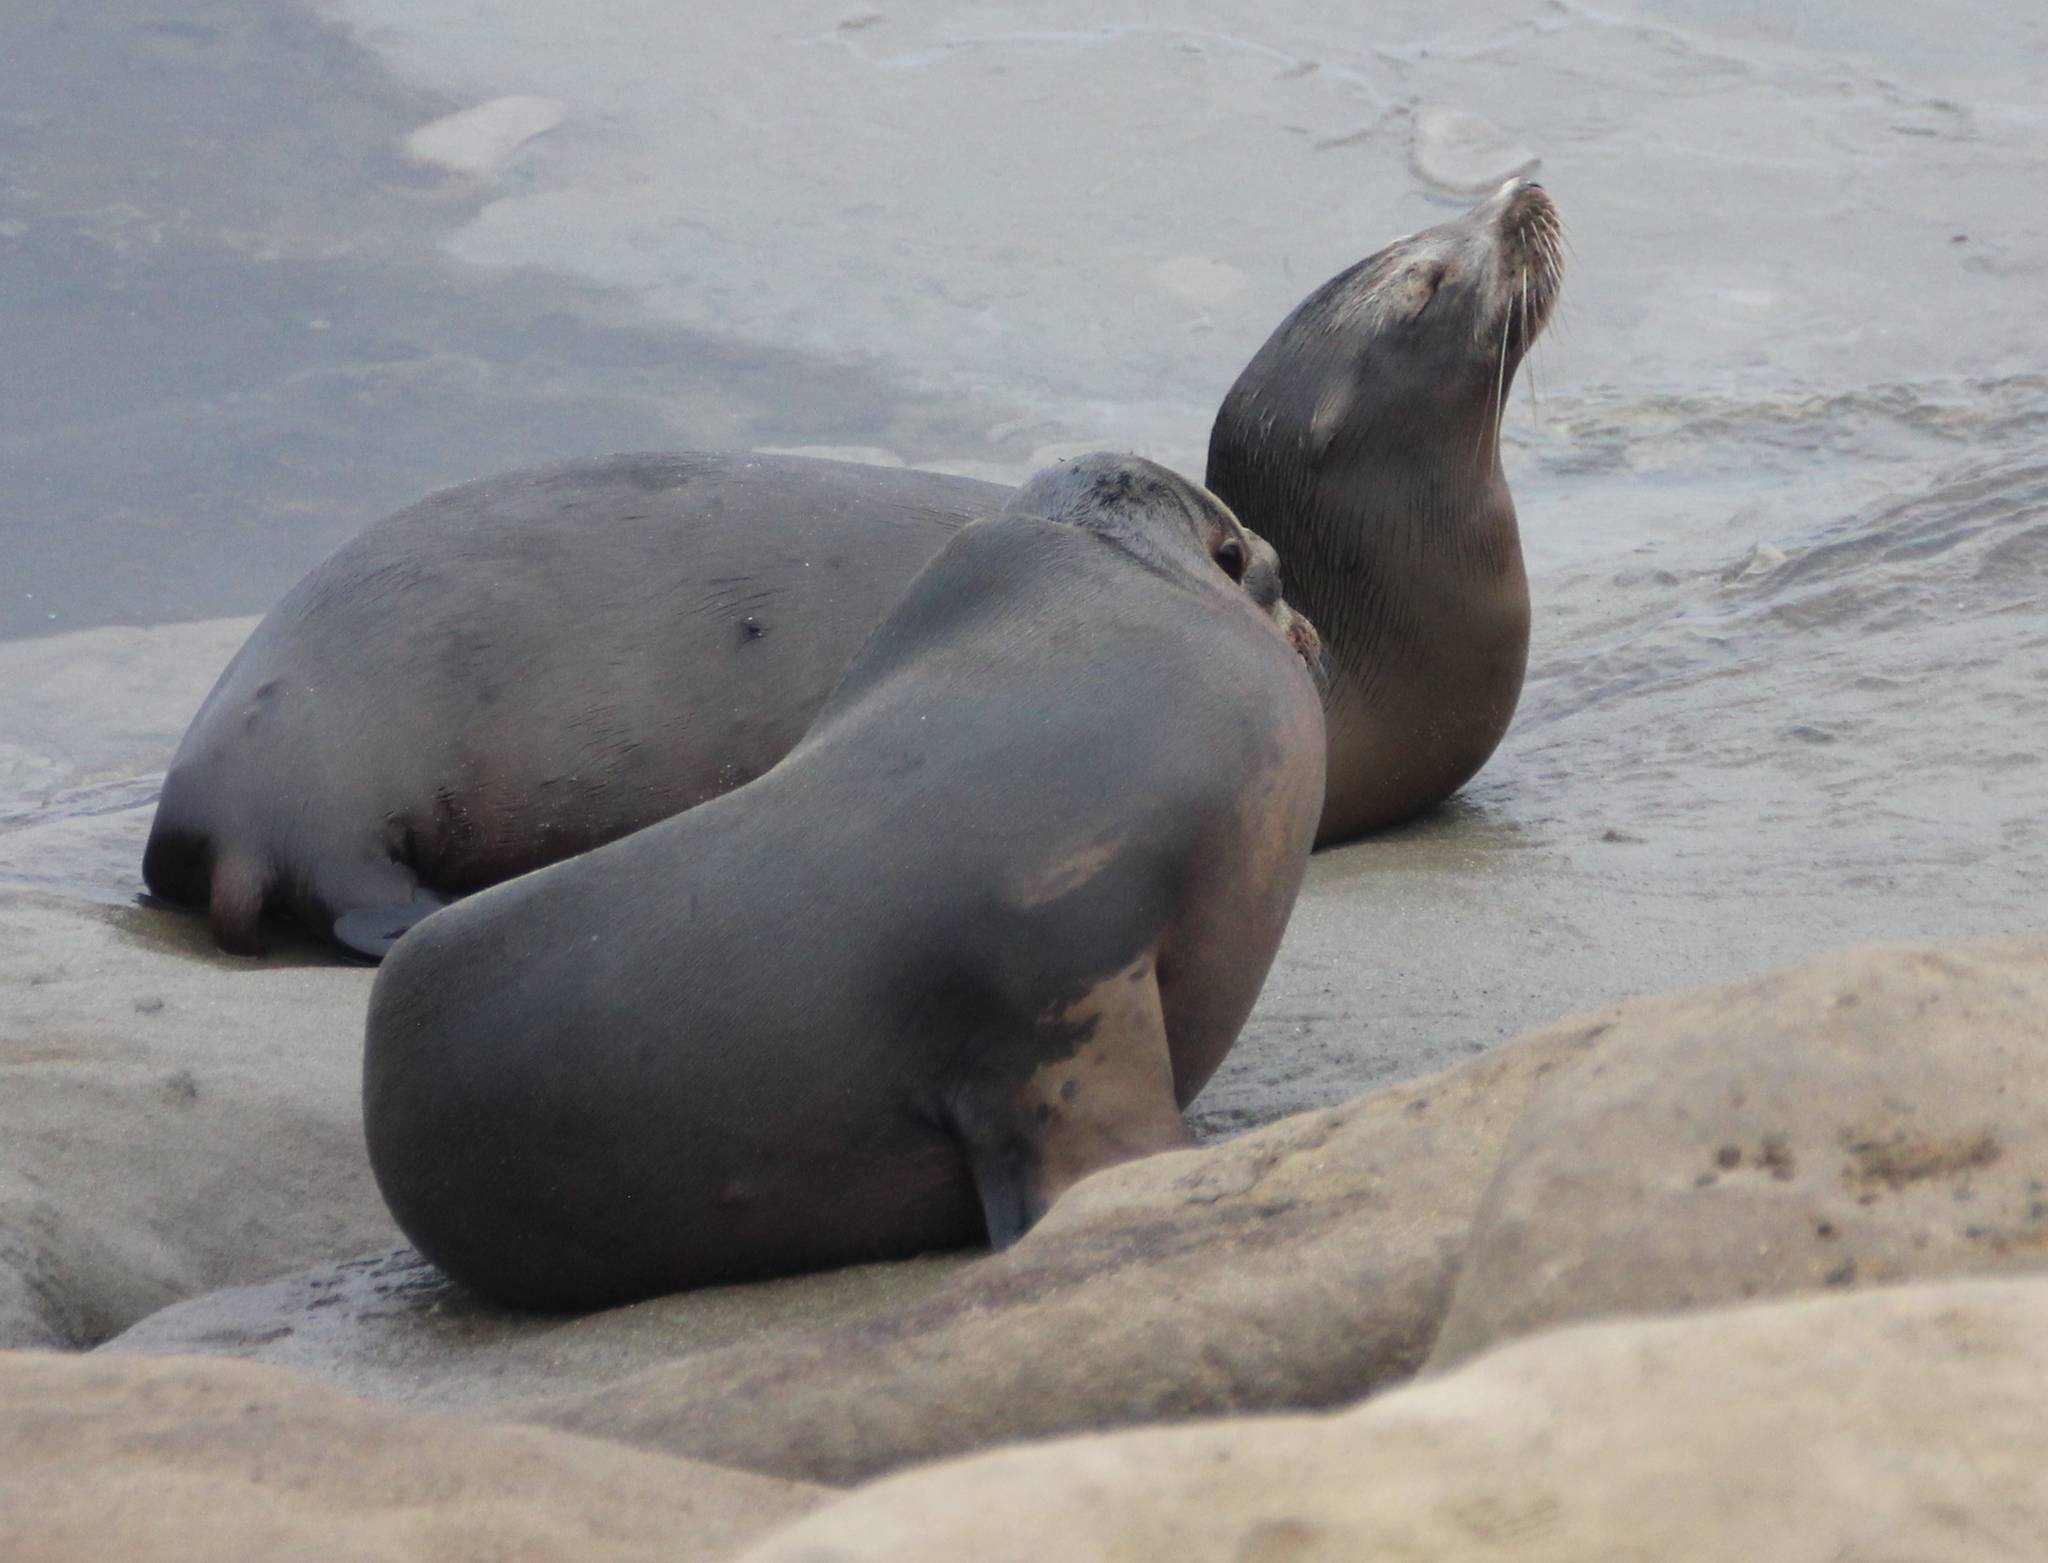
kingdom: Animalia
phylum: Chordata
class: Mammalia
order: Carnivora
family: Otariidae
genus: Zalophus
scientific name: Zalophus californianus
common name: California sea lion
